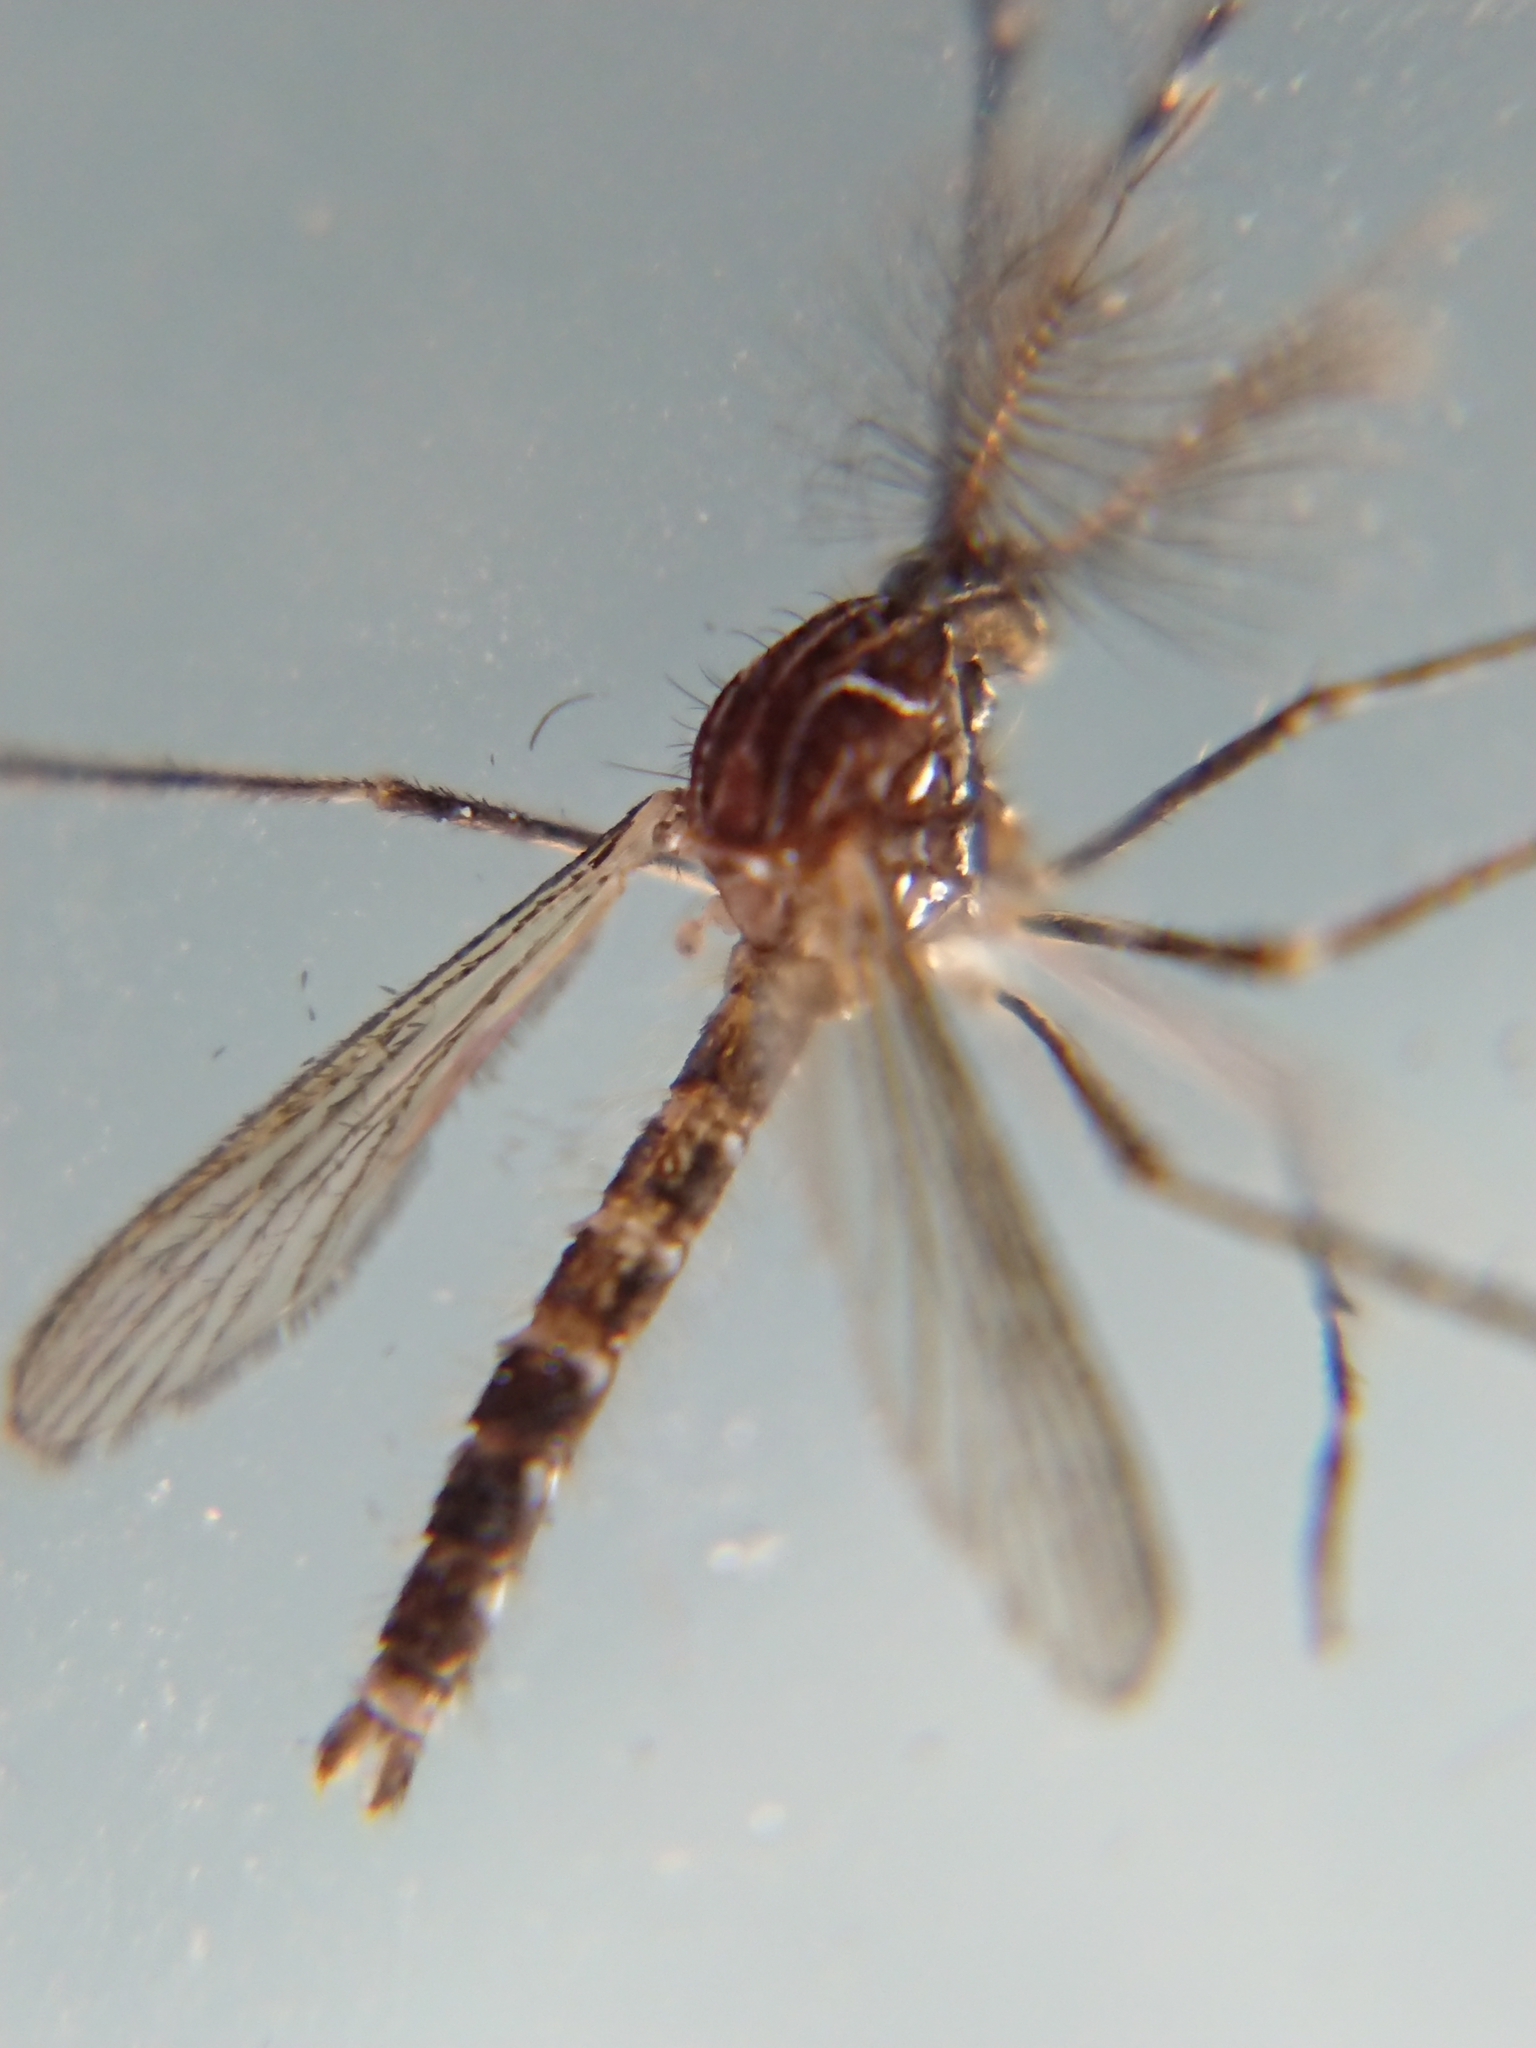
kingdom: Animalia
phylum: Arthropoda
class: Insecta
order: Diptera
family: Culicidae
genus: Aedes
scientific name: Aedes notoscriptus
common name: Australian backyard mosquito
